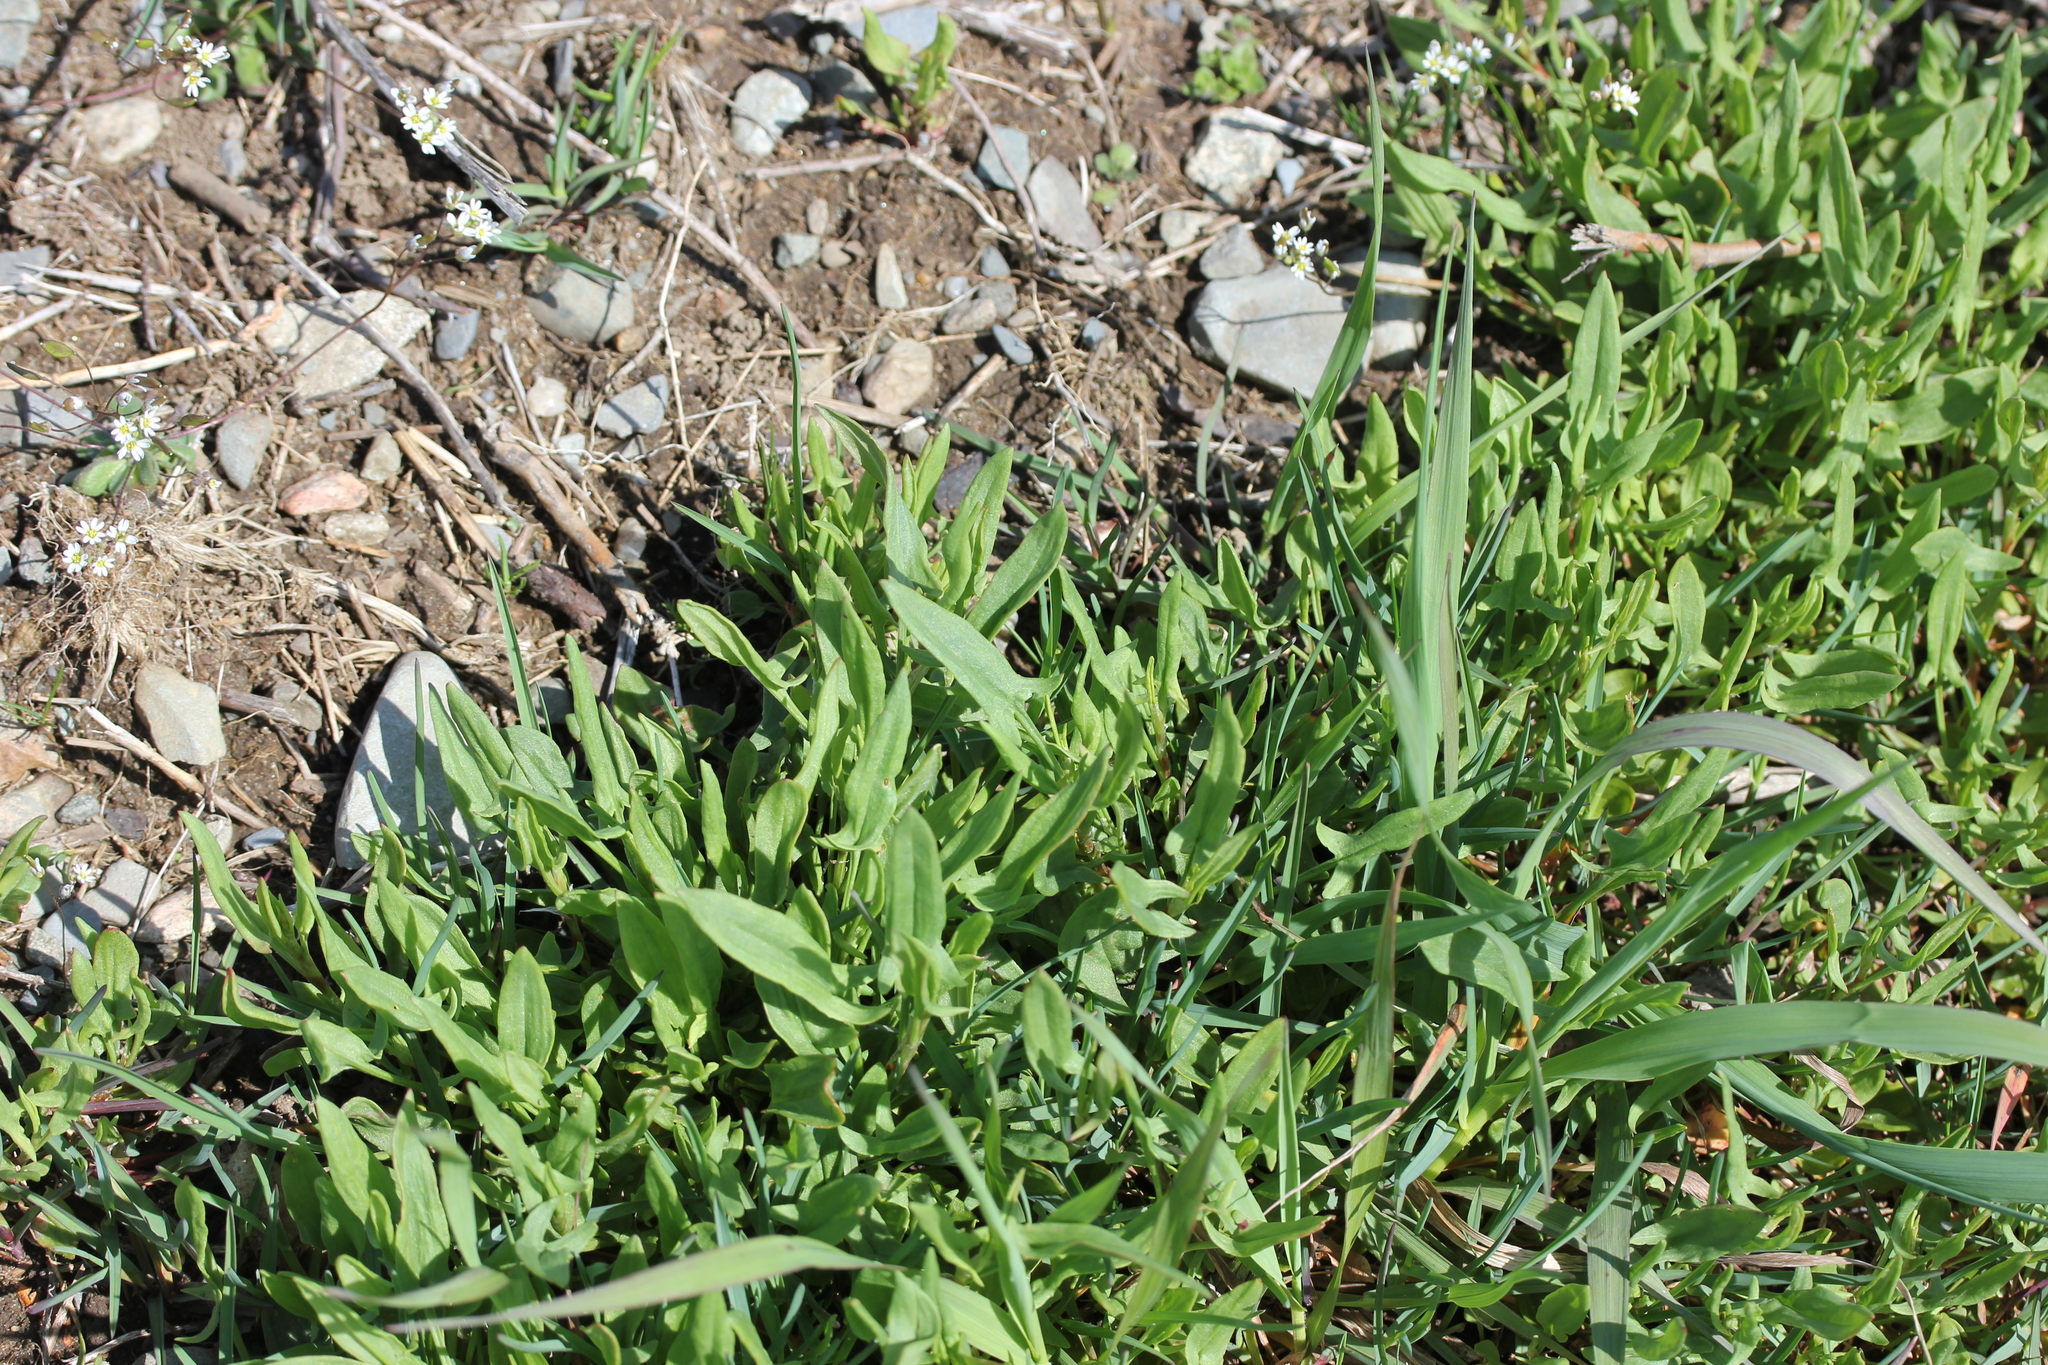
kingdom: Plantae
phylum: Tracheophyta
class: Magnoliopsida
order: Caryophyllales
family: Polygonaceae
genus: Rumex
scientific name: Rumex acetosella
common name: Common sheep sorrel
